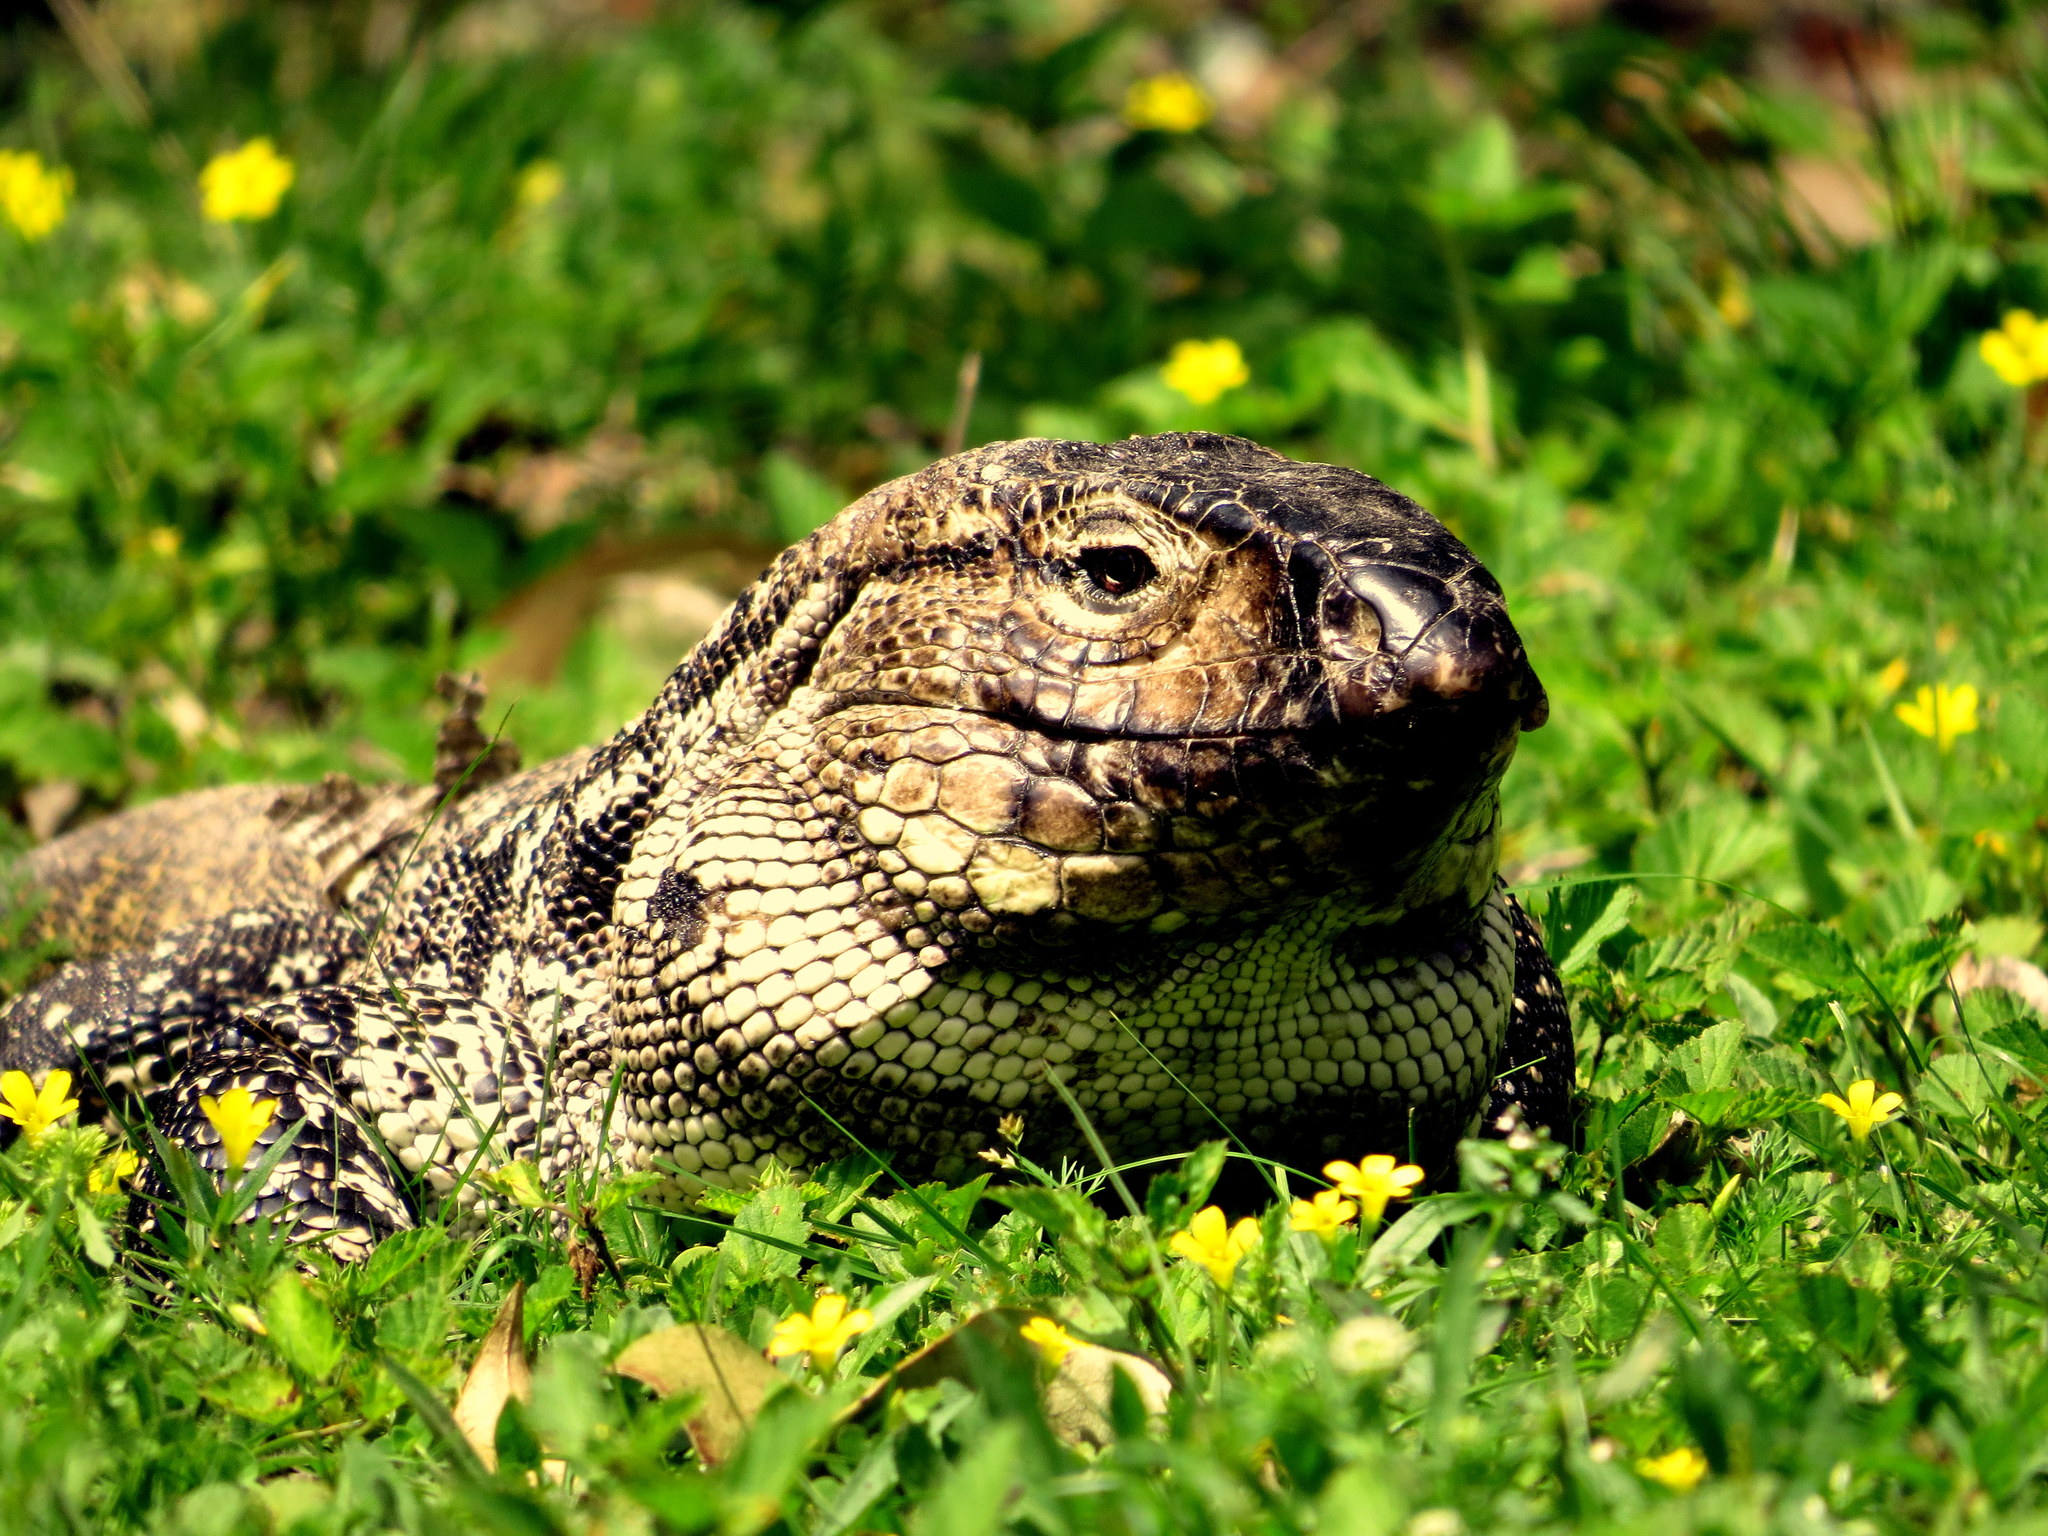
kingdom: Animalia
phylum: Chordata
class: Squamata
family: Teiidae
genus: Salvator
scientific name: Salvator merianae
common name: Argentine black and white tegu
